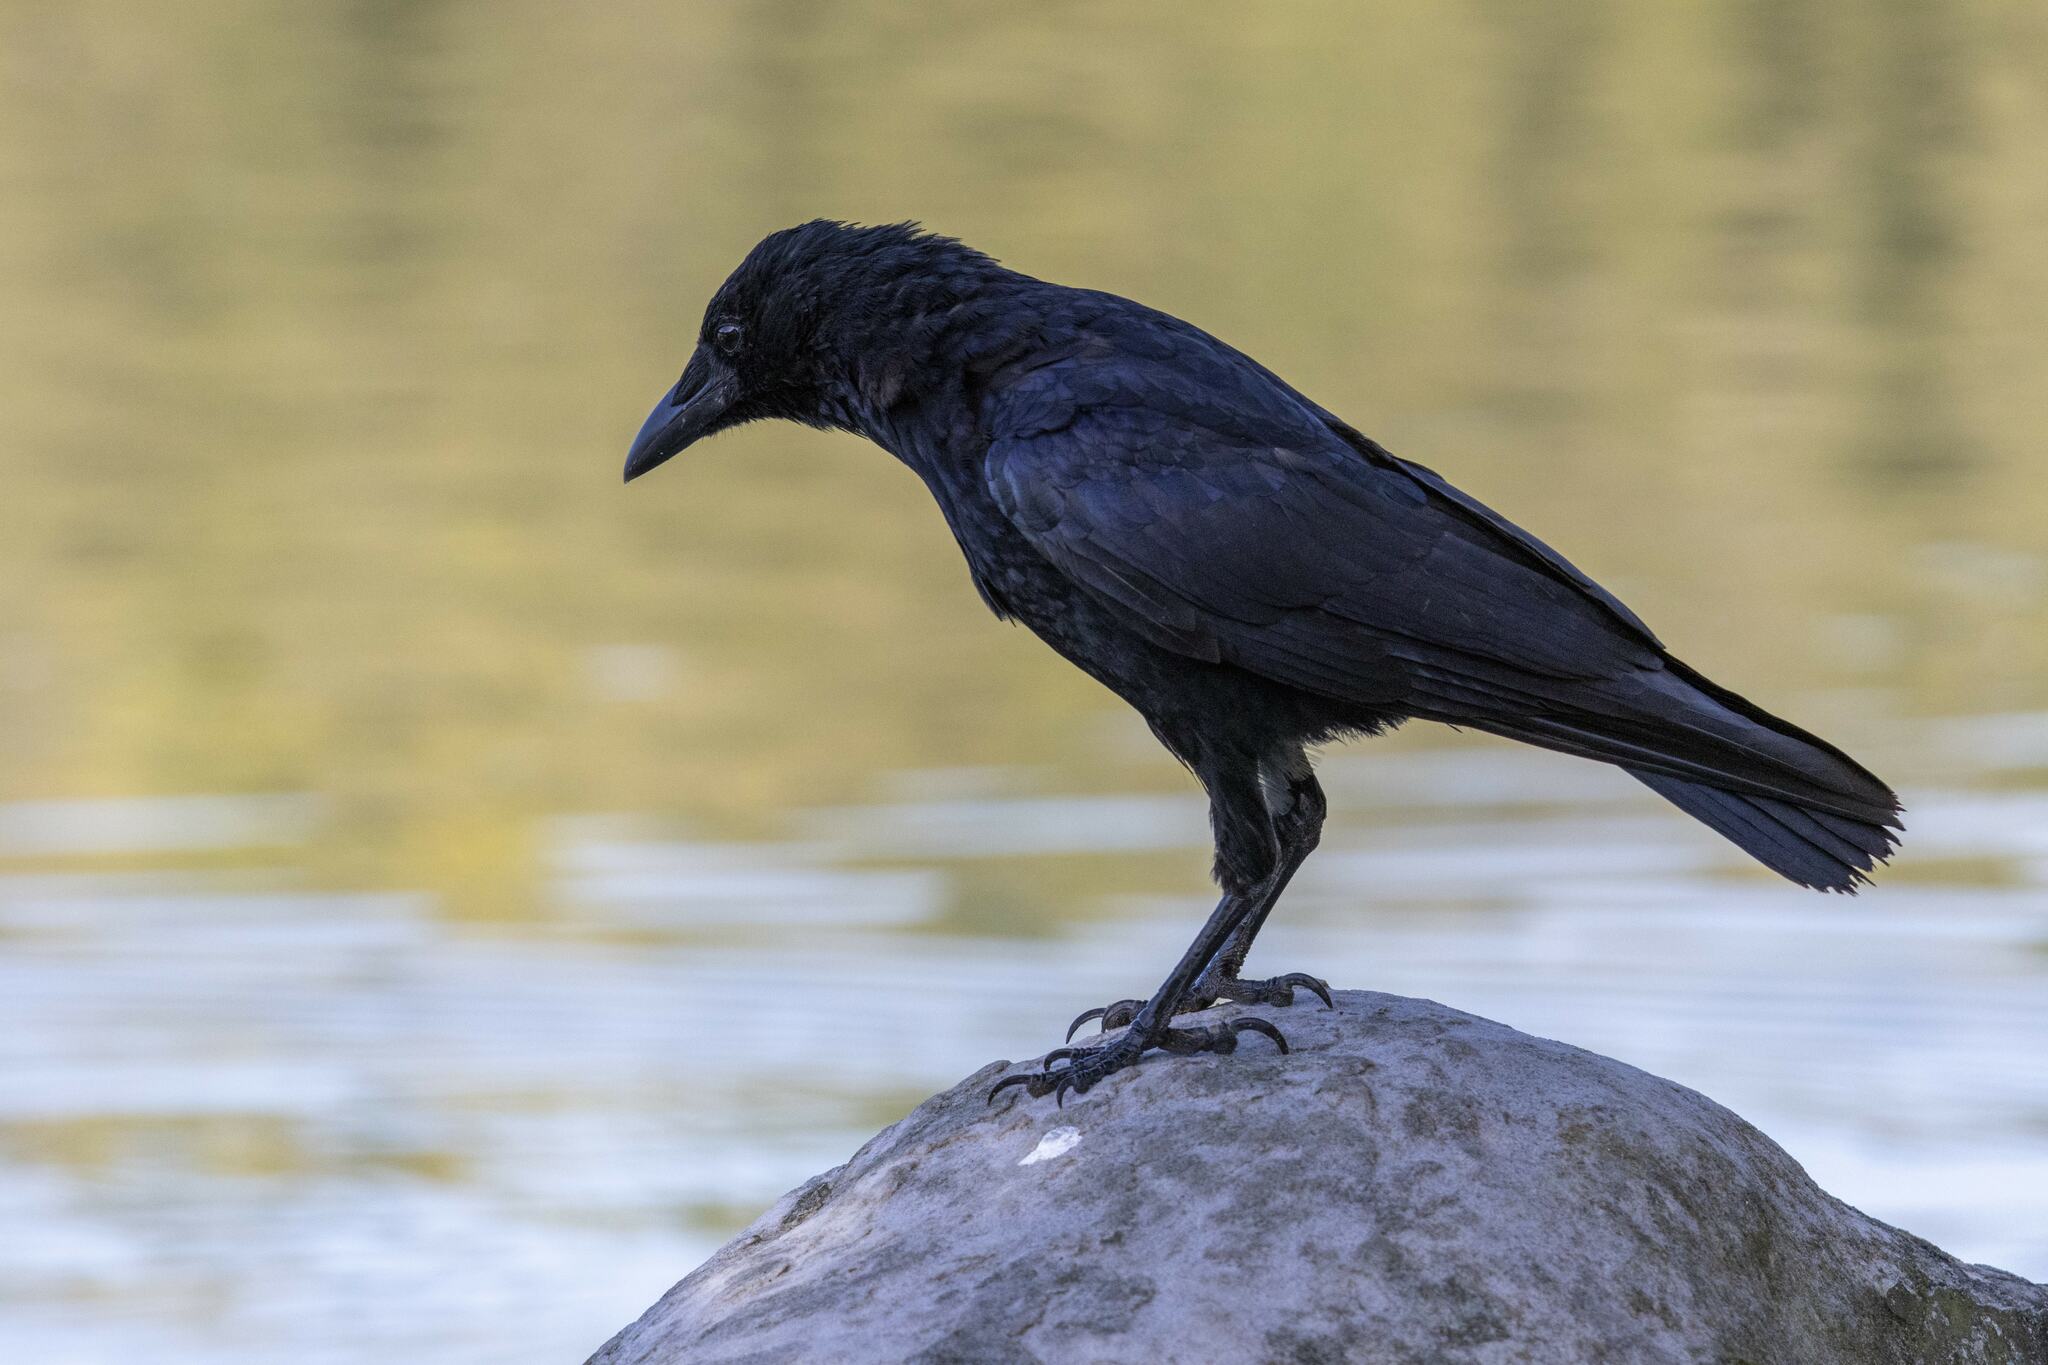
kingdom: Animalia
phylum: Chordata
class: Aves
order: Passeriformes
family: Corvidae
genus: Corvus
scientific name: Corvus corone
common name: Carrion crow
